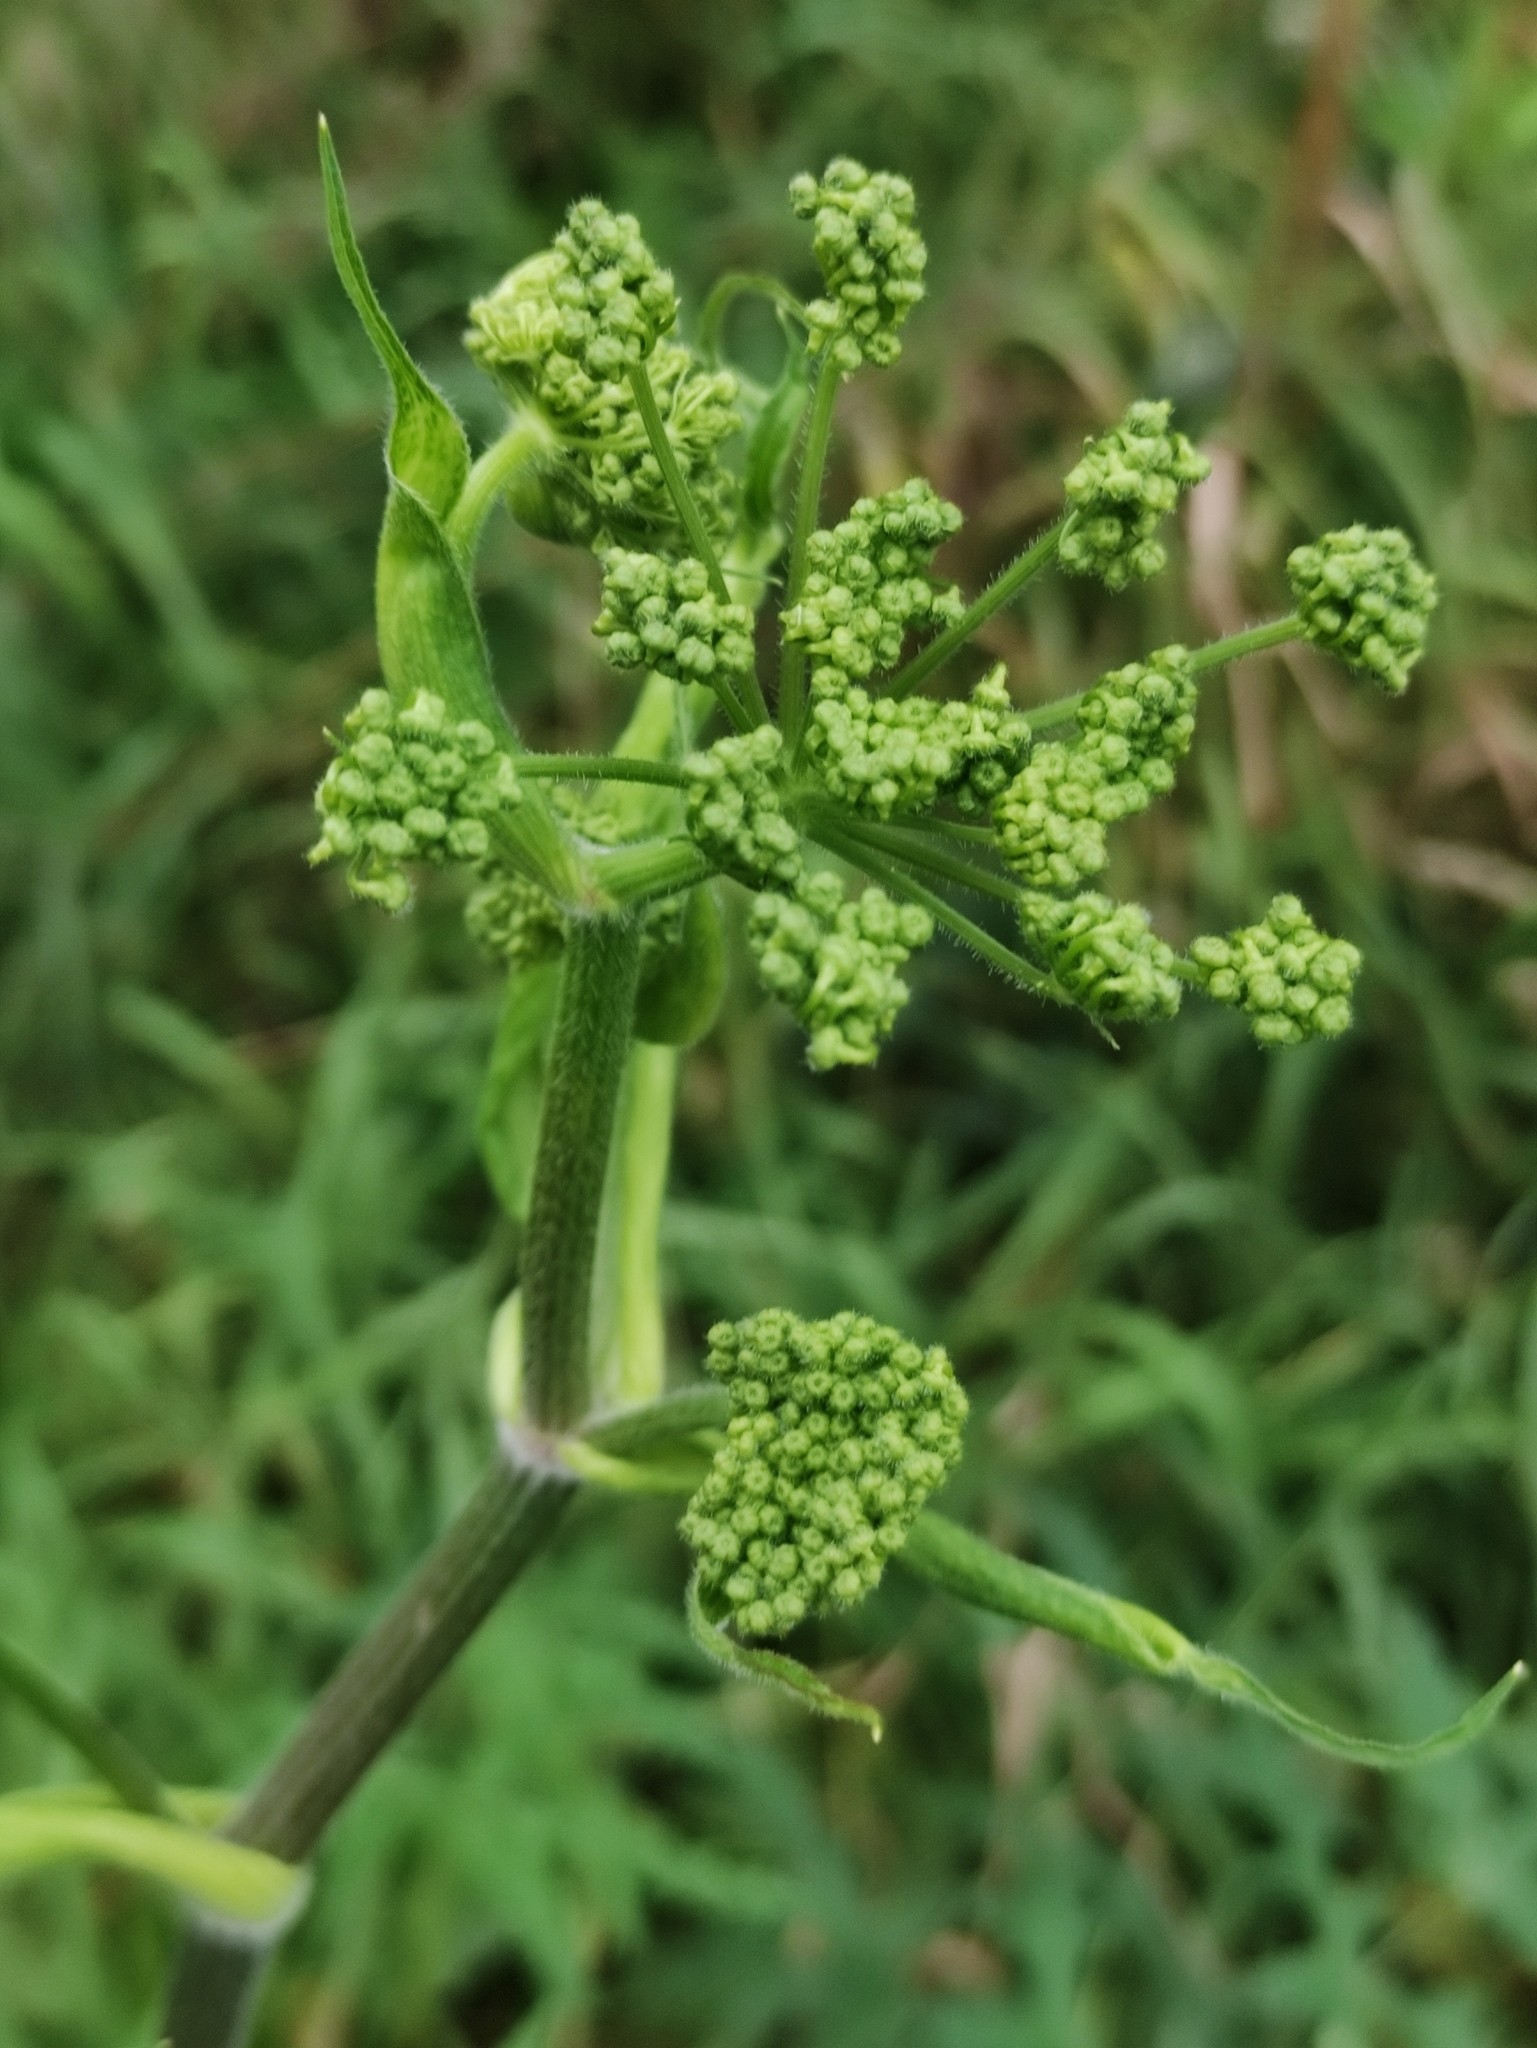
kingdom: Plantae
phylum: Tracheophyta
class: Magnoliopsida
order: Apiales
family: Apiaceae
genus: Heracleum
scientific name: Heracleum sphondylium
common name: Hogweed
